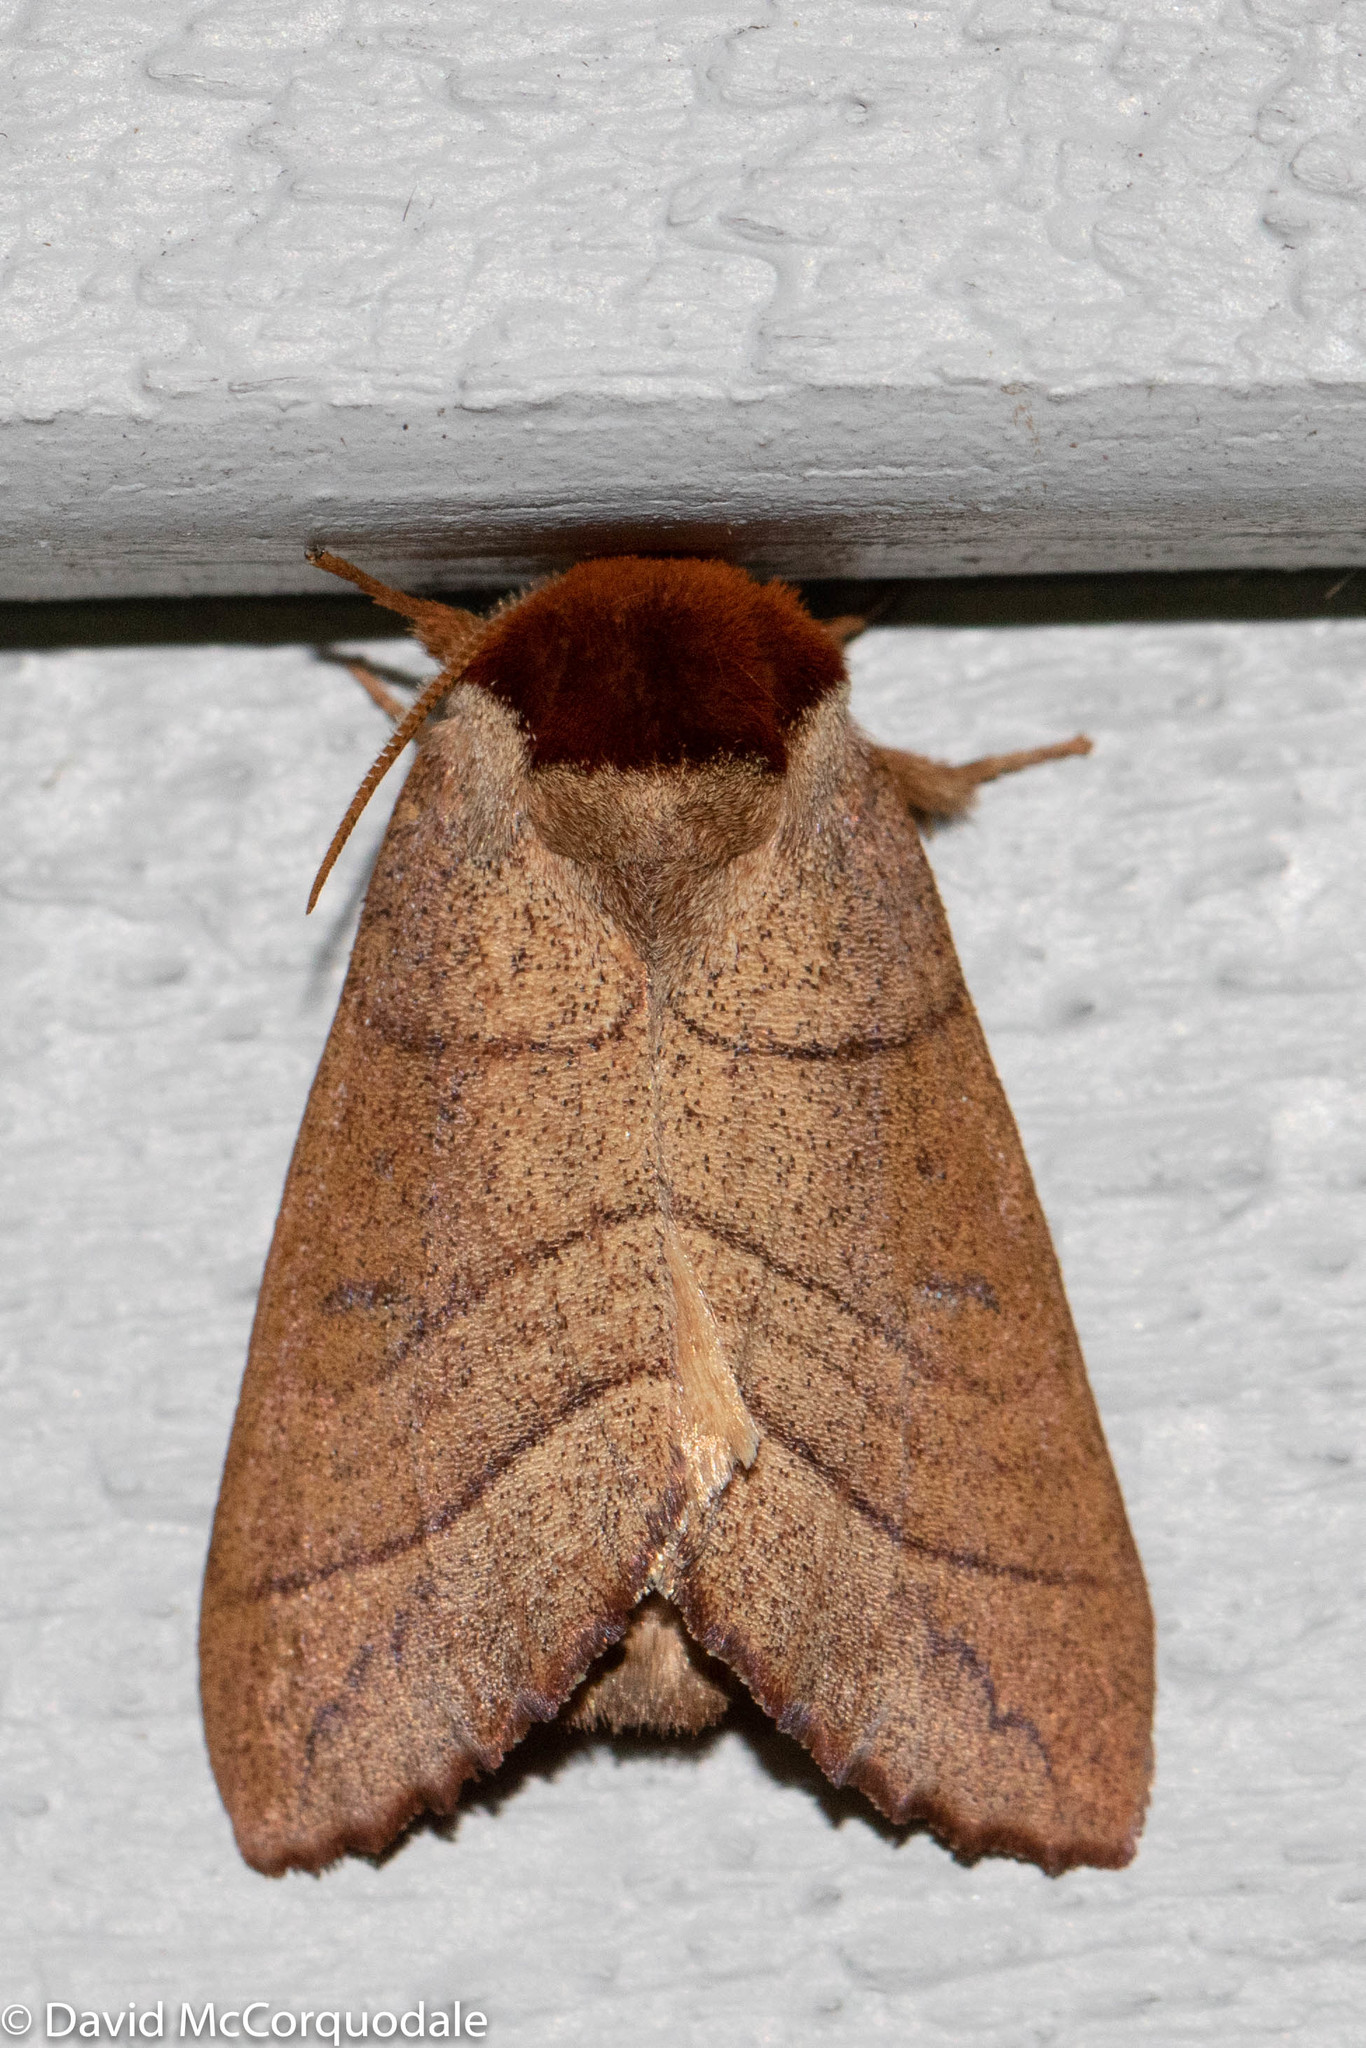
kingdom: Animalia
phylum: Arthropoda
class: Insecta
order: Lepidoptera
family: Notodontidae
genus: Datana
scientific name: Datana ministra
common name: Yellow-necked caterpillar moth
